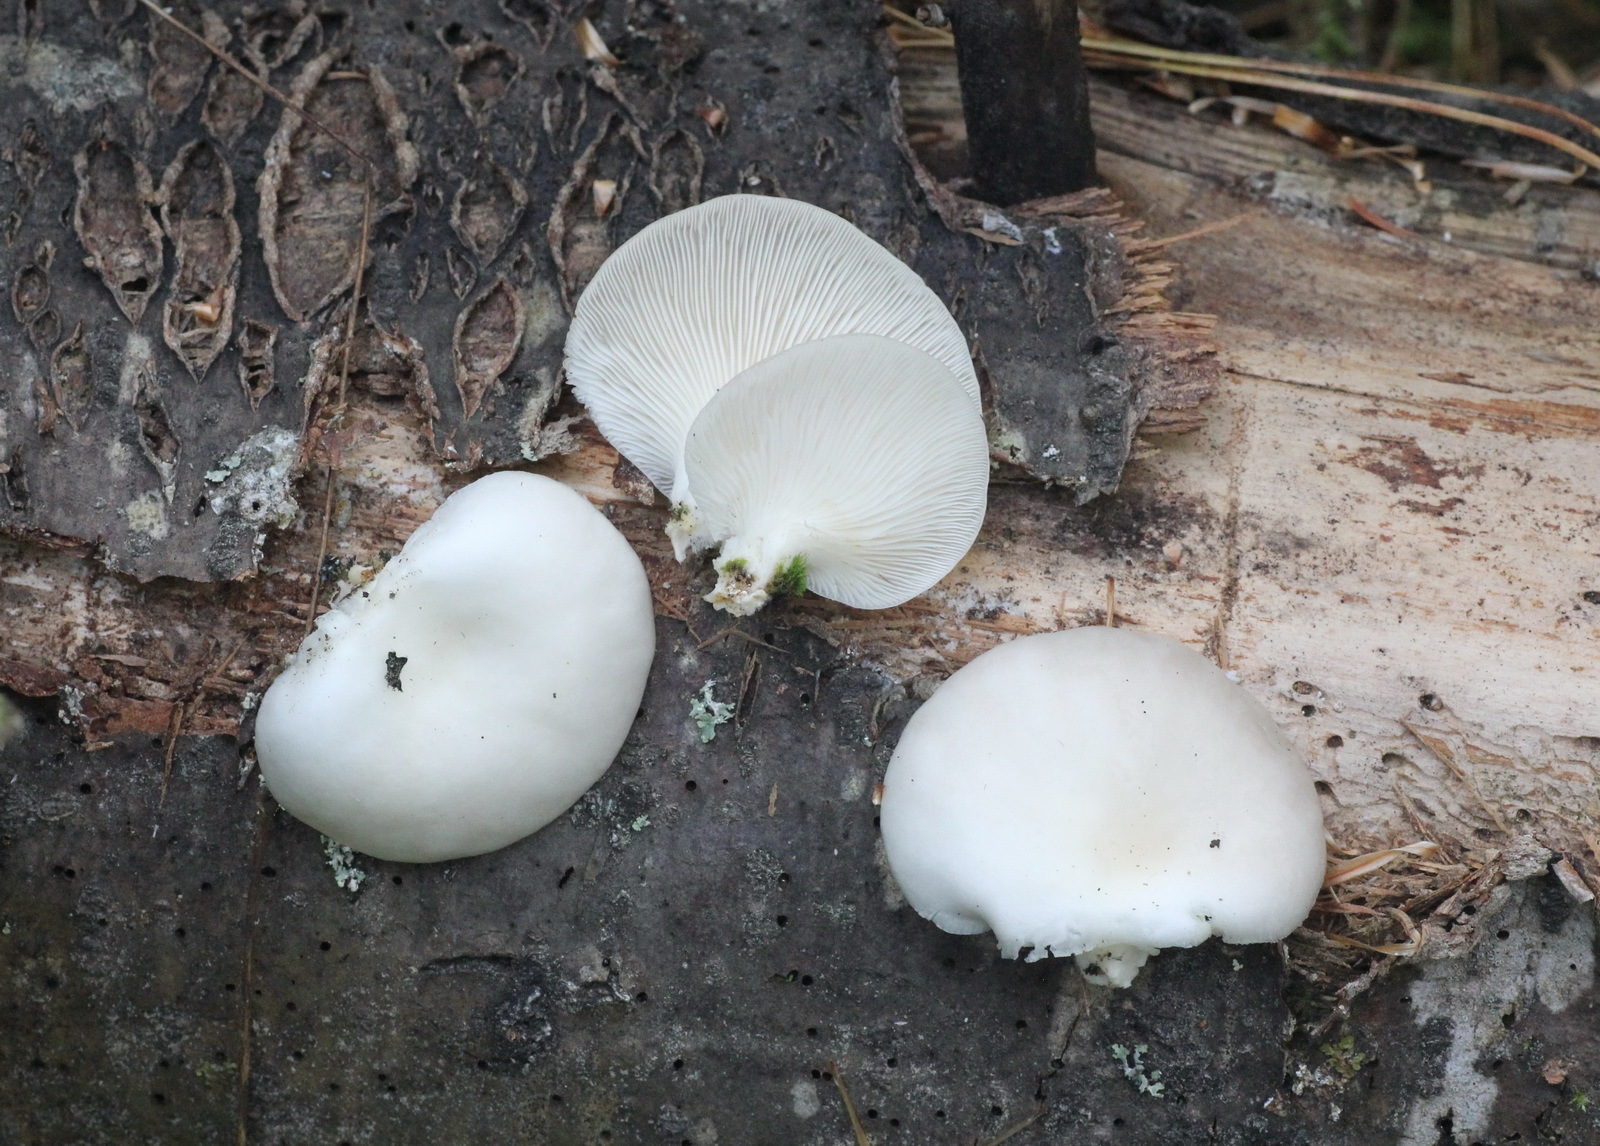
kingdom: Fungi
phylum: Basidiomycota
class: Agaricomycetes
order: Agaricales
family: Pleurotaceae
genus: Pleurotus
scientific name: Pleurotus abieticola
